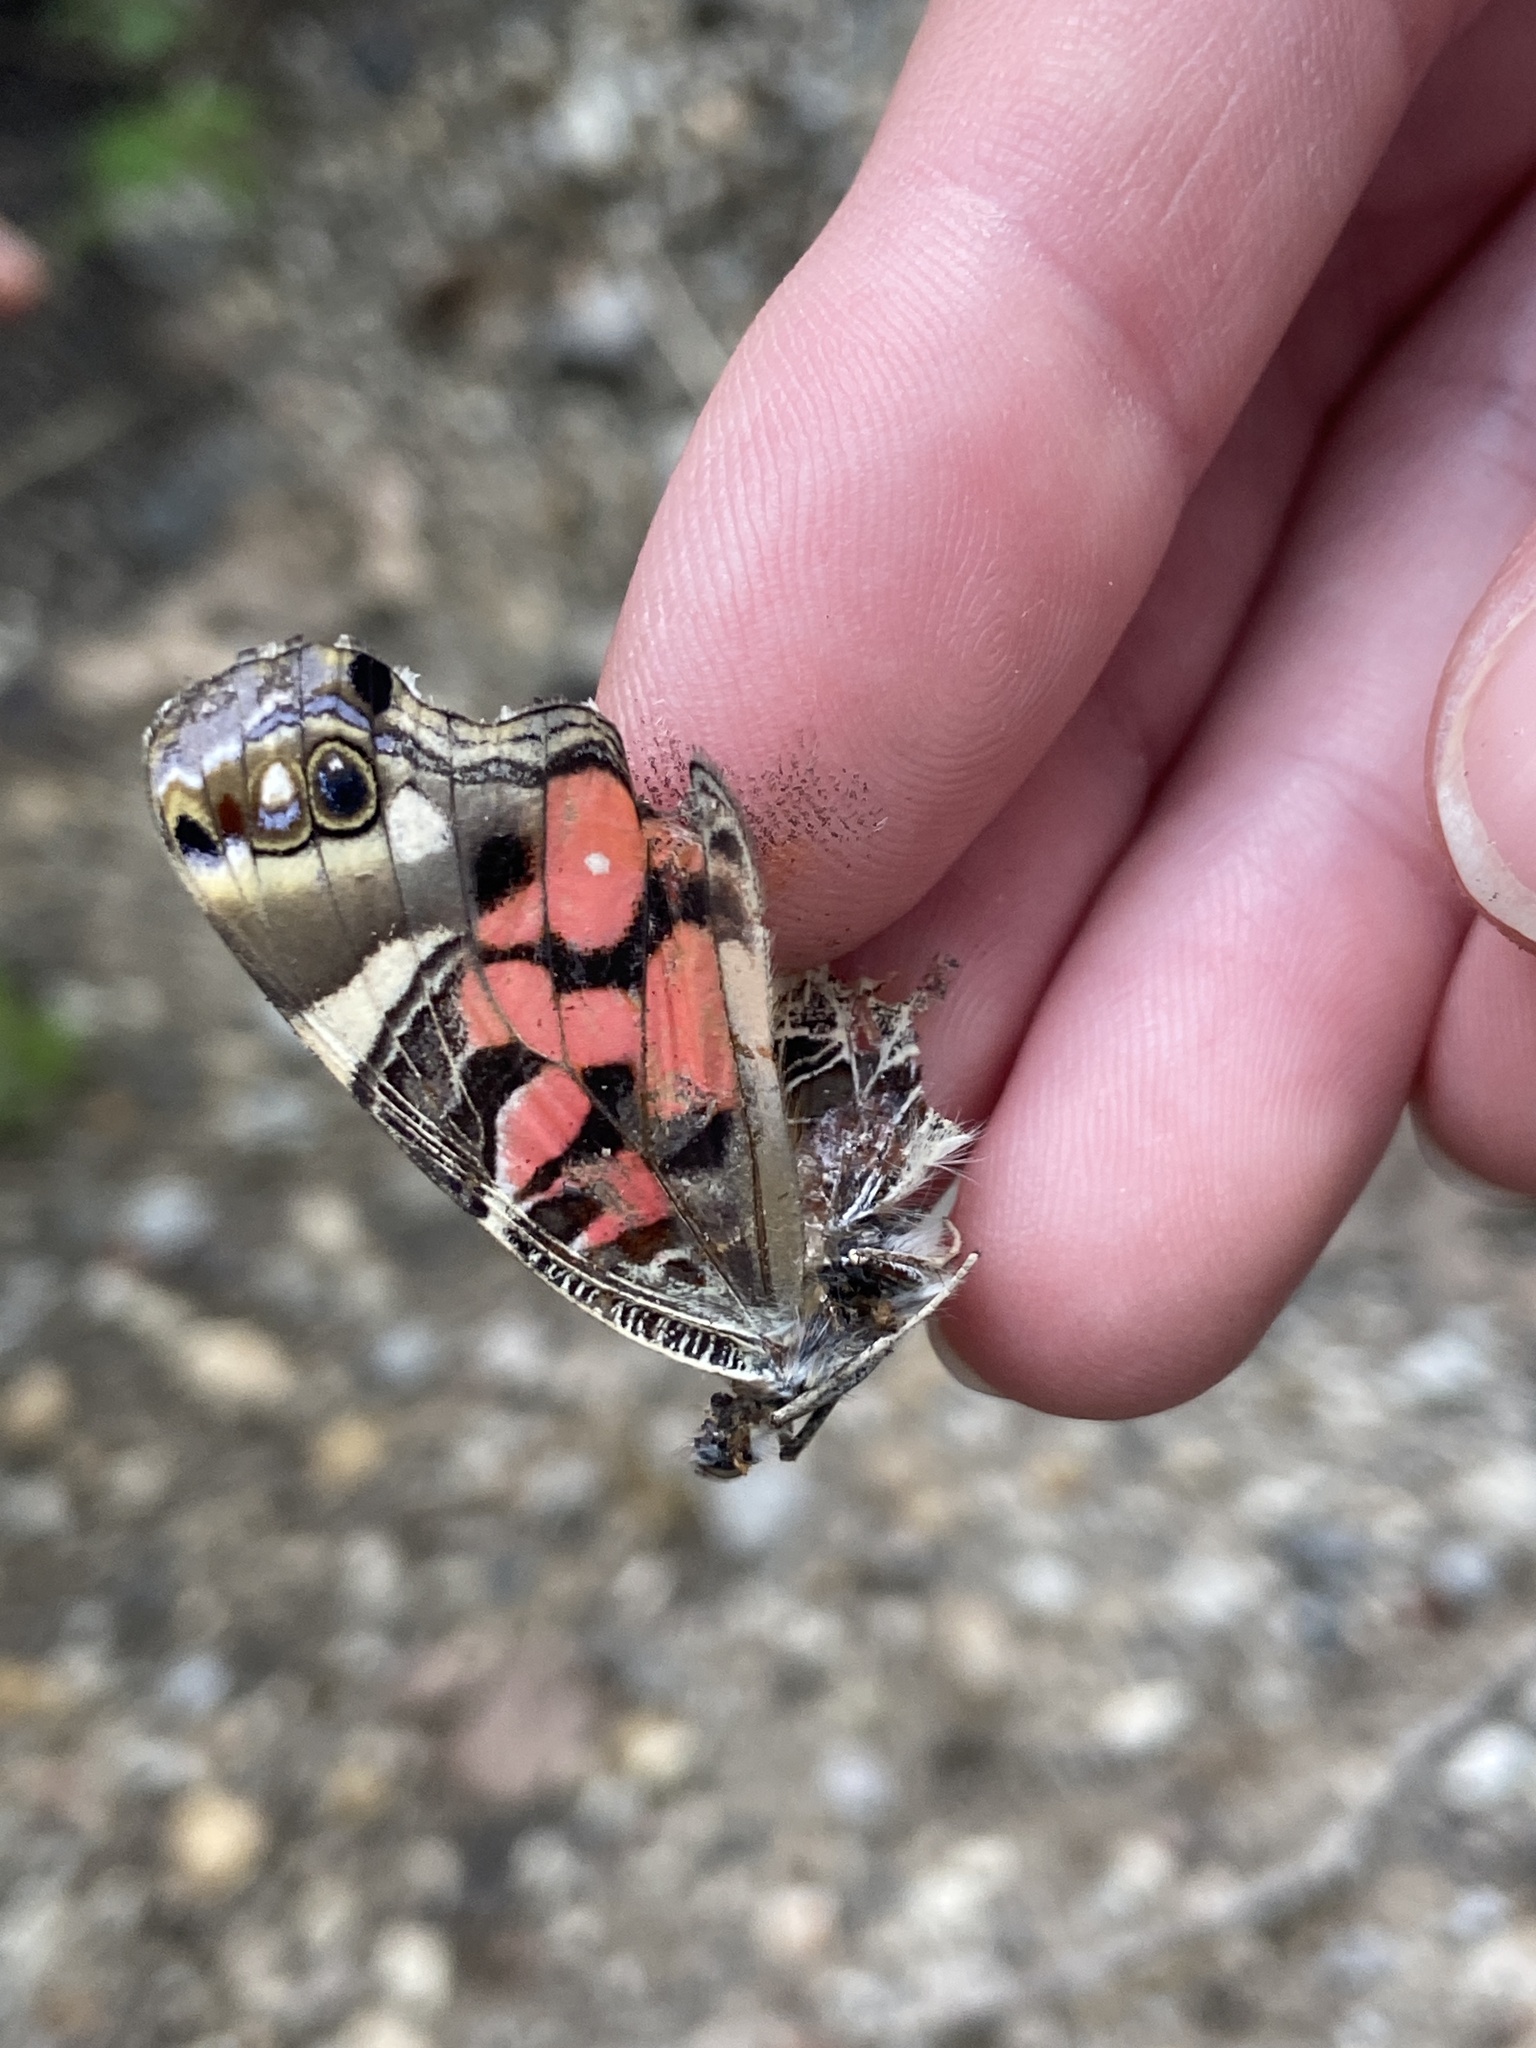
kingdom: Animalia
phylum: Arthropoda
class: Insecta
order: Lepidoptera
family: Nymphalidae
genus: Vanessa
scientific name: Vanessa virginiensis
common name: American lady
